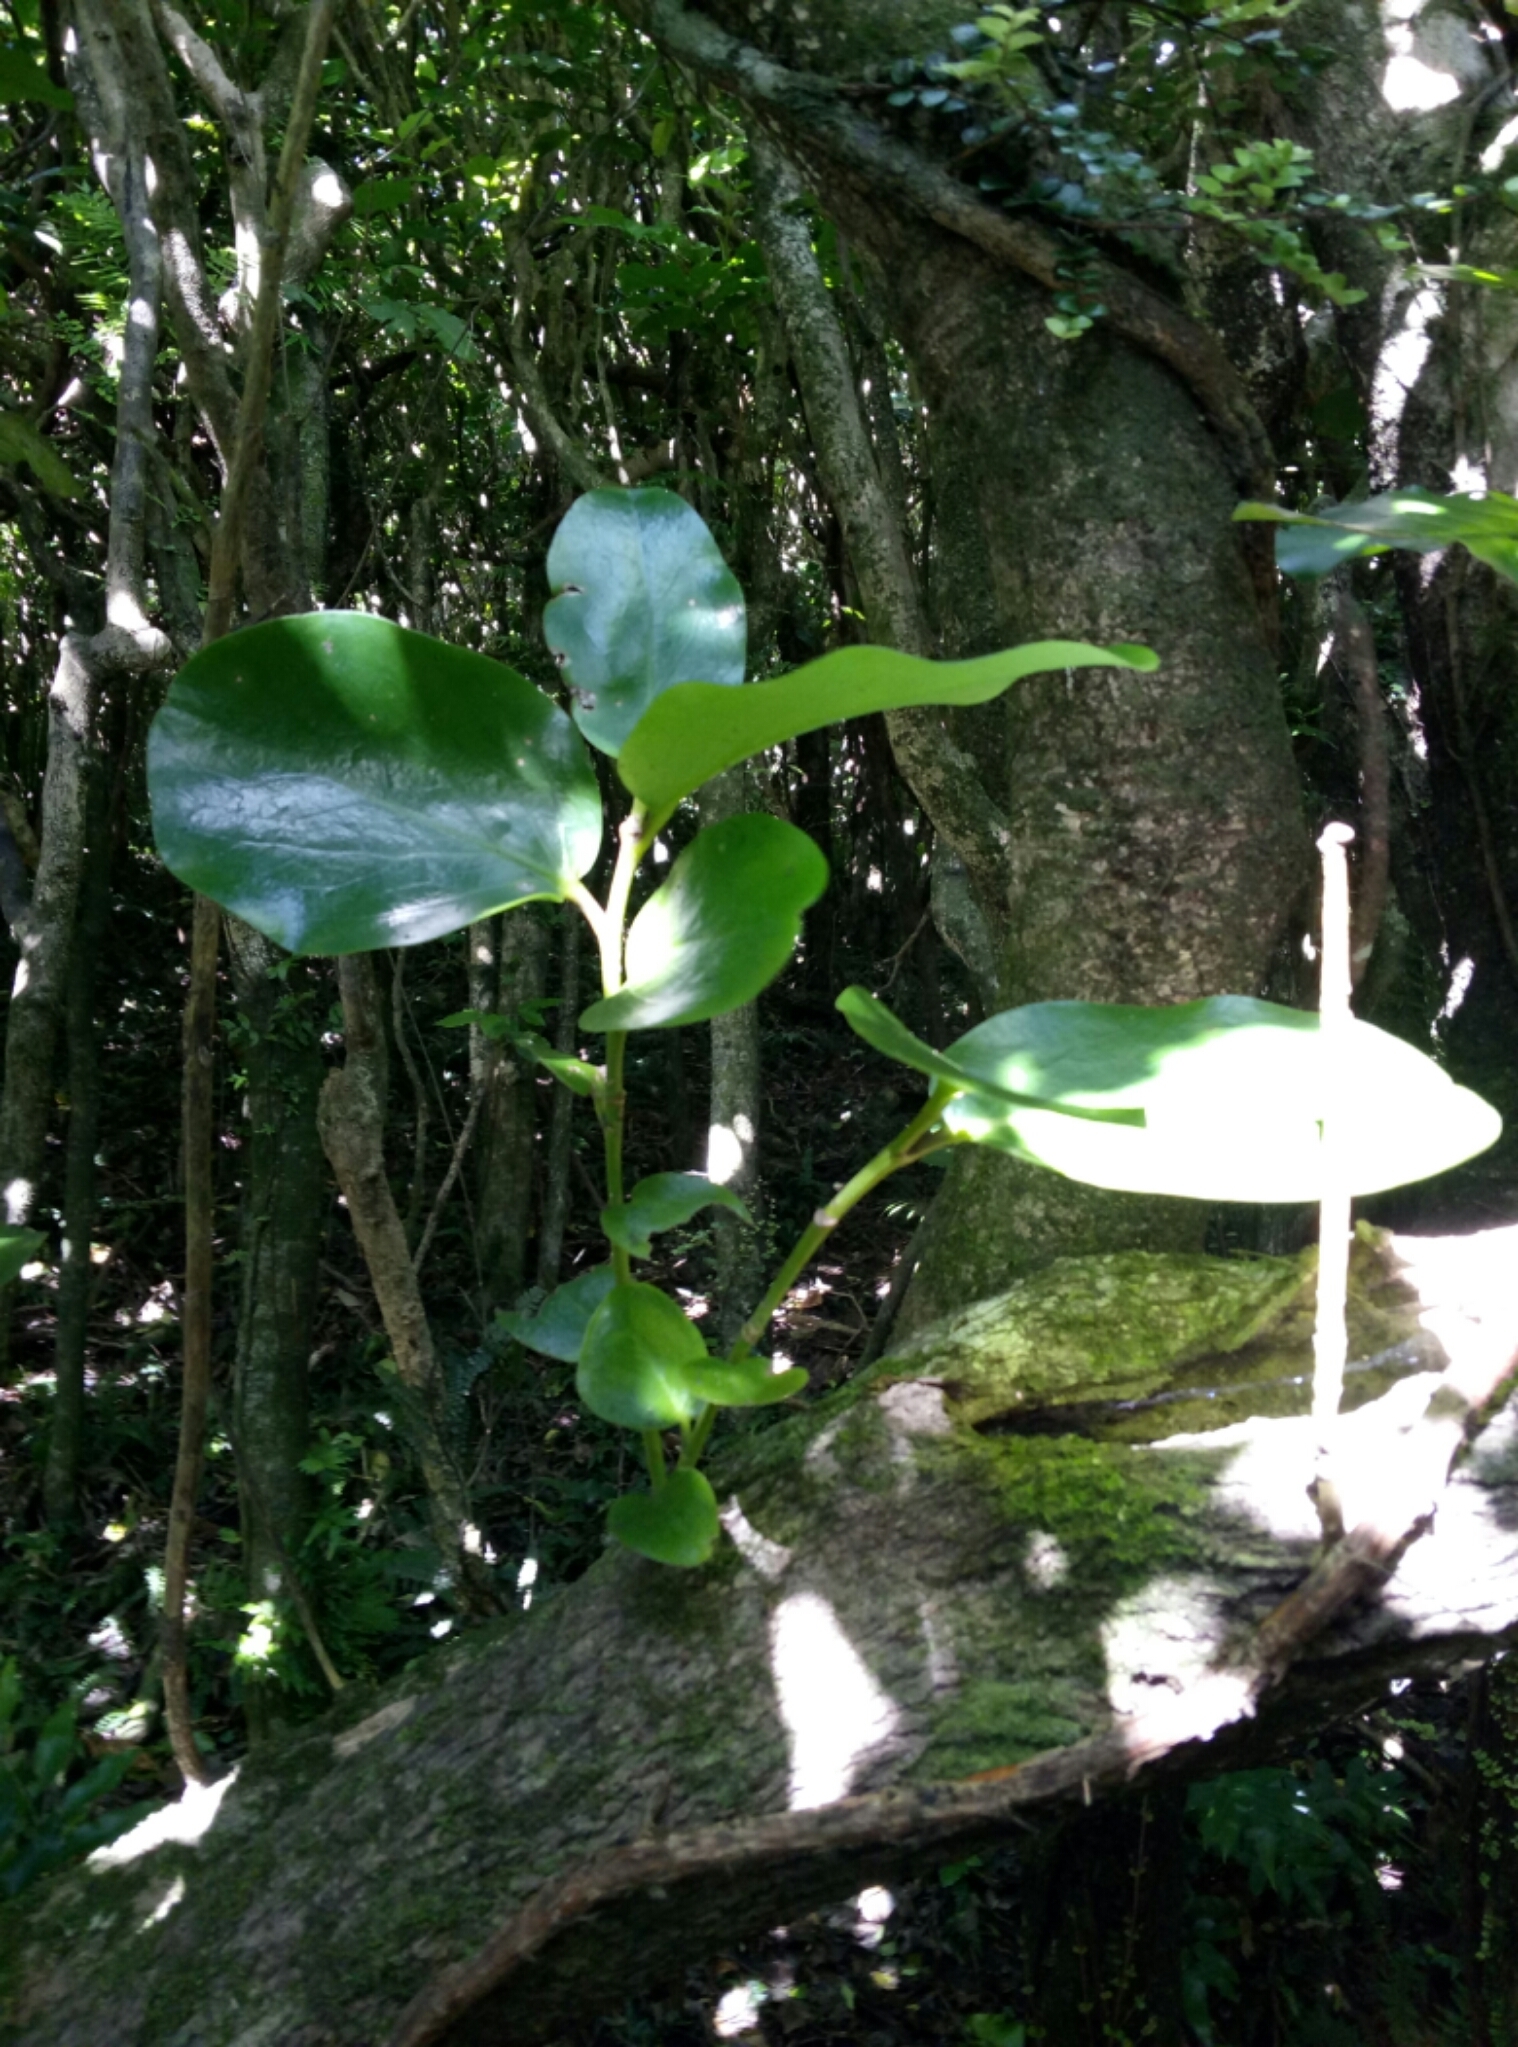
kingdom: Plantae
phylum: Tracheophyta
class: Magnoliopsida
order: Apiales
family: Griseliniaceae
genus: Griselinia
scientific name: Griselinia lucida
